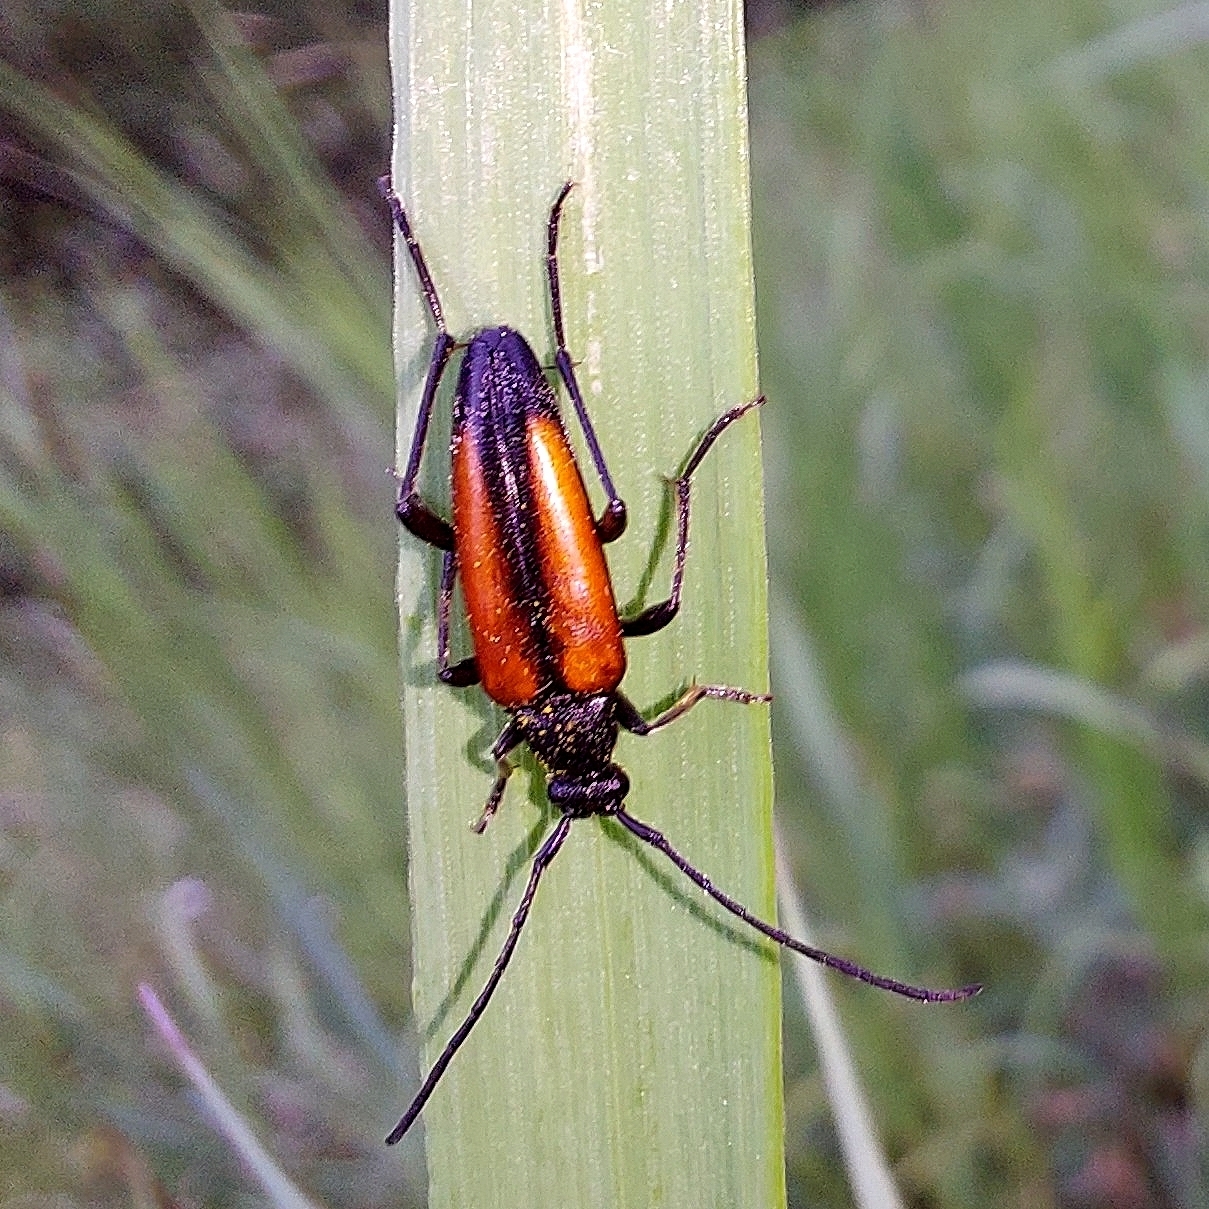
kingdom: Animalia
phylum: Arthropoda
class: Insecta
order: Coleoptera
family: Cerambycidae
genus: Stenurella
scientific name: Stenurella melanura
